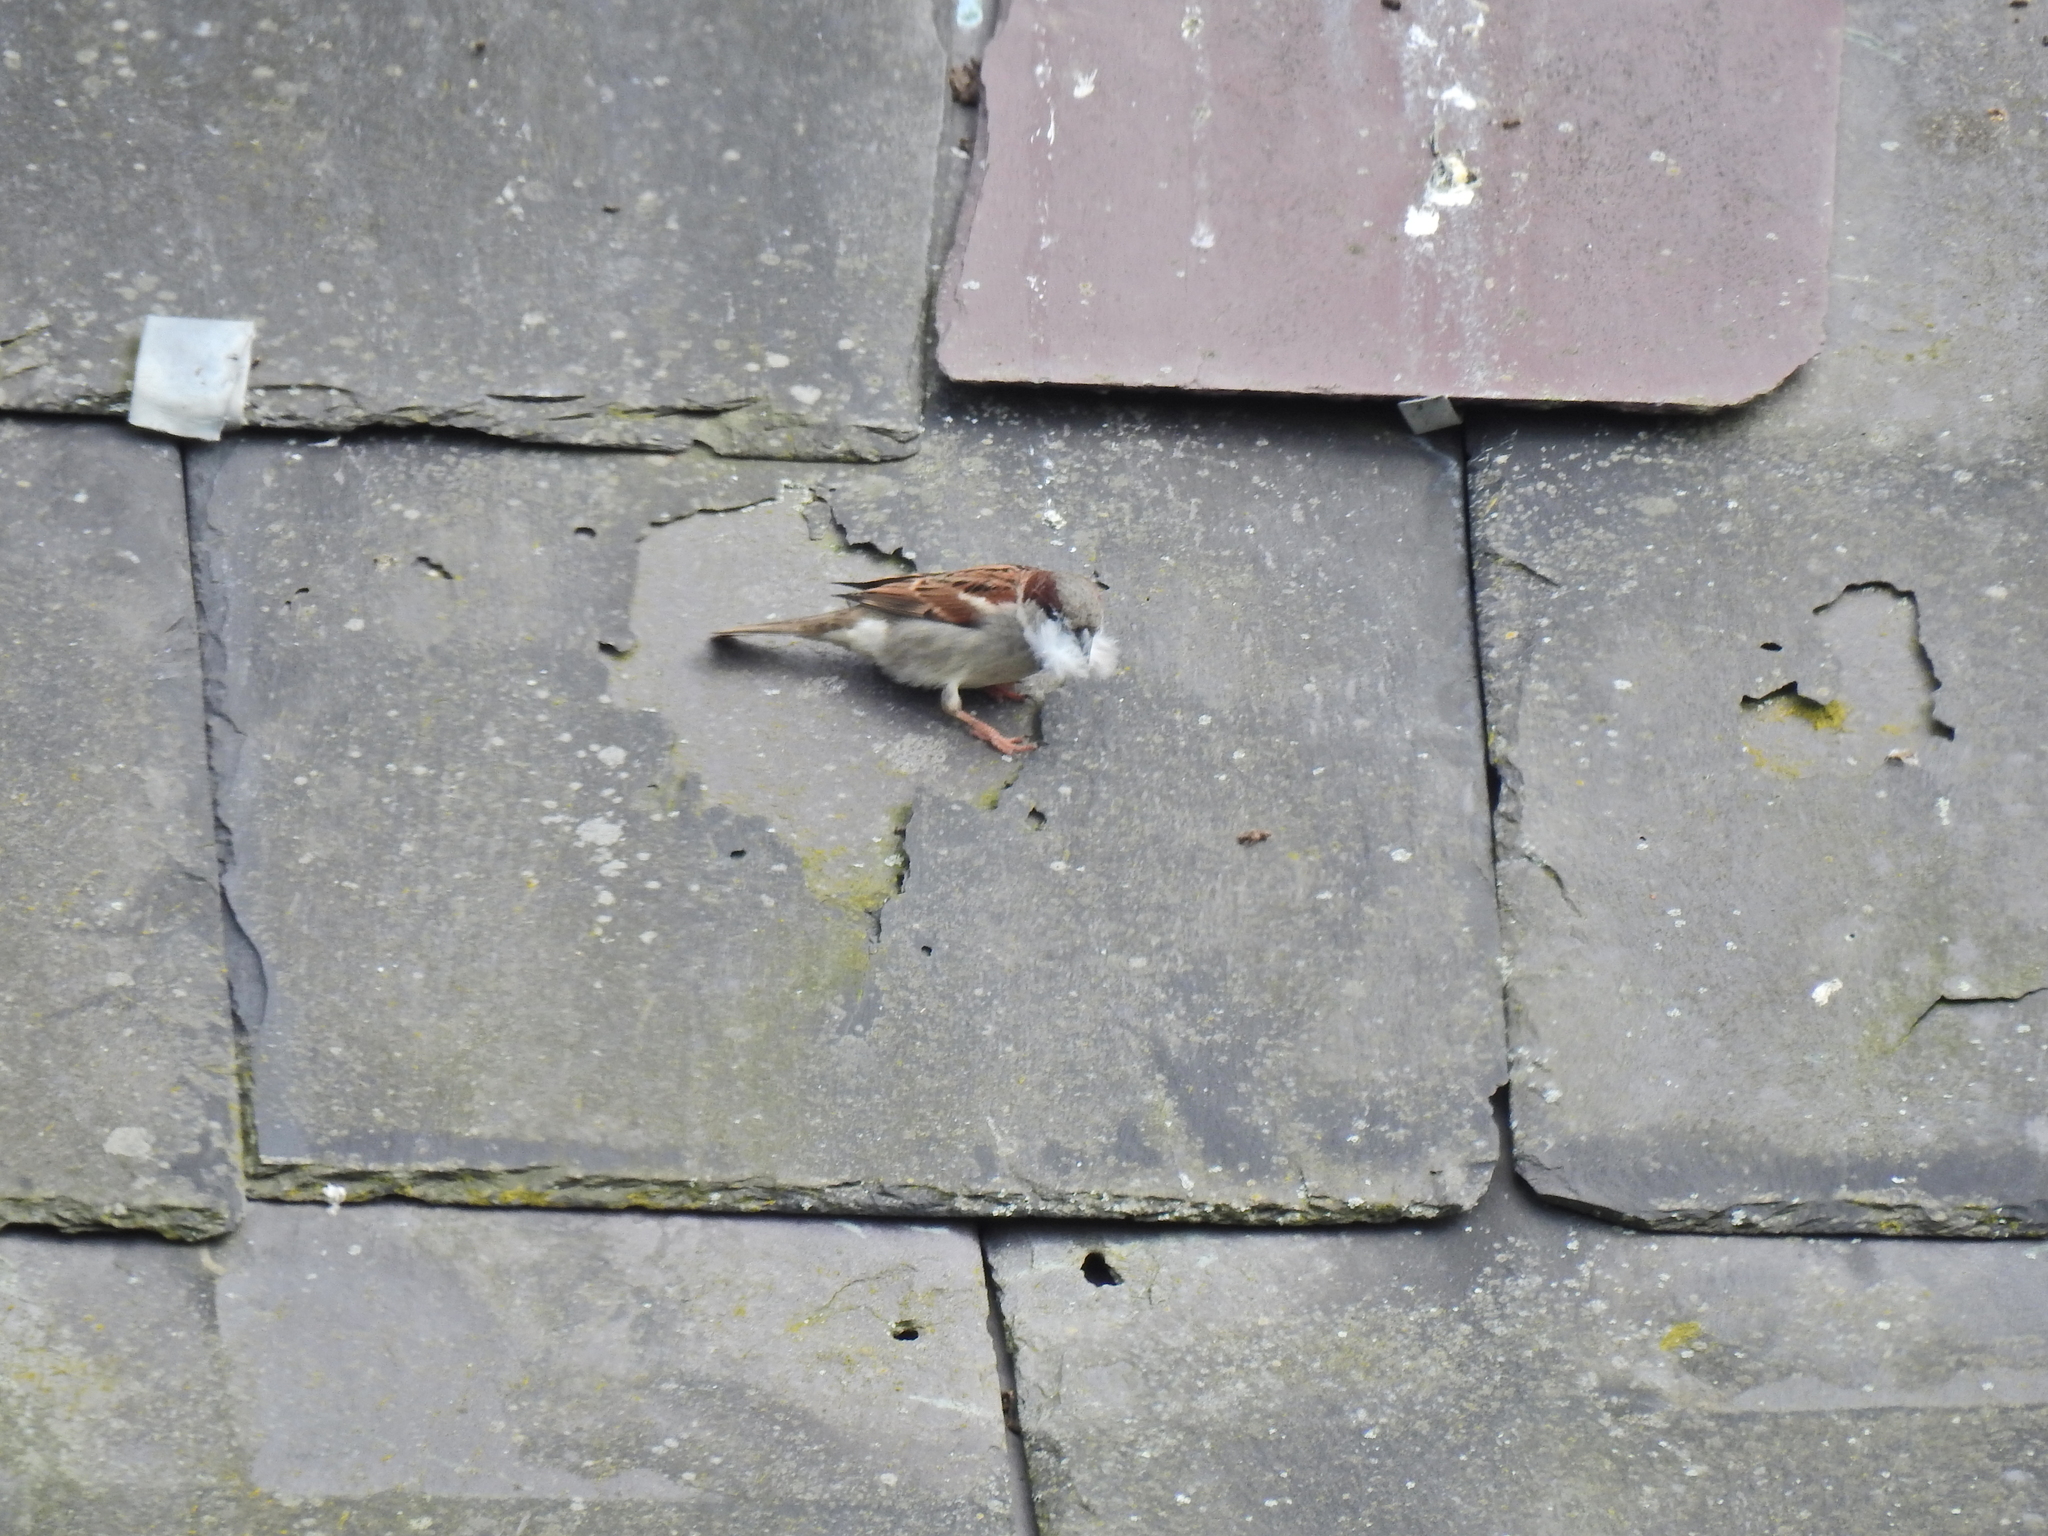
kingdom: Animalia
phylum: Chordata
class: Aves
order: Passeriformes
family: Passeridae
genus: Passer
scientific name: Passer domesticus
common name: House sparrow
